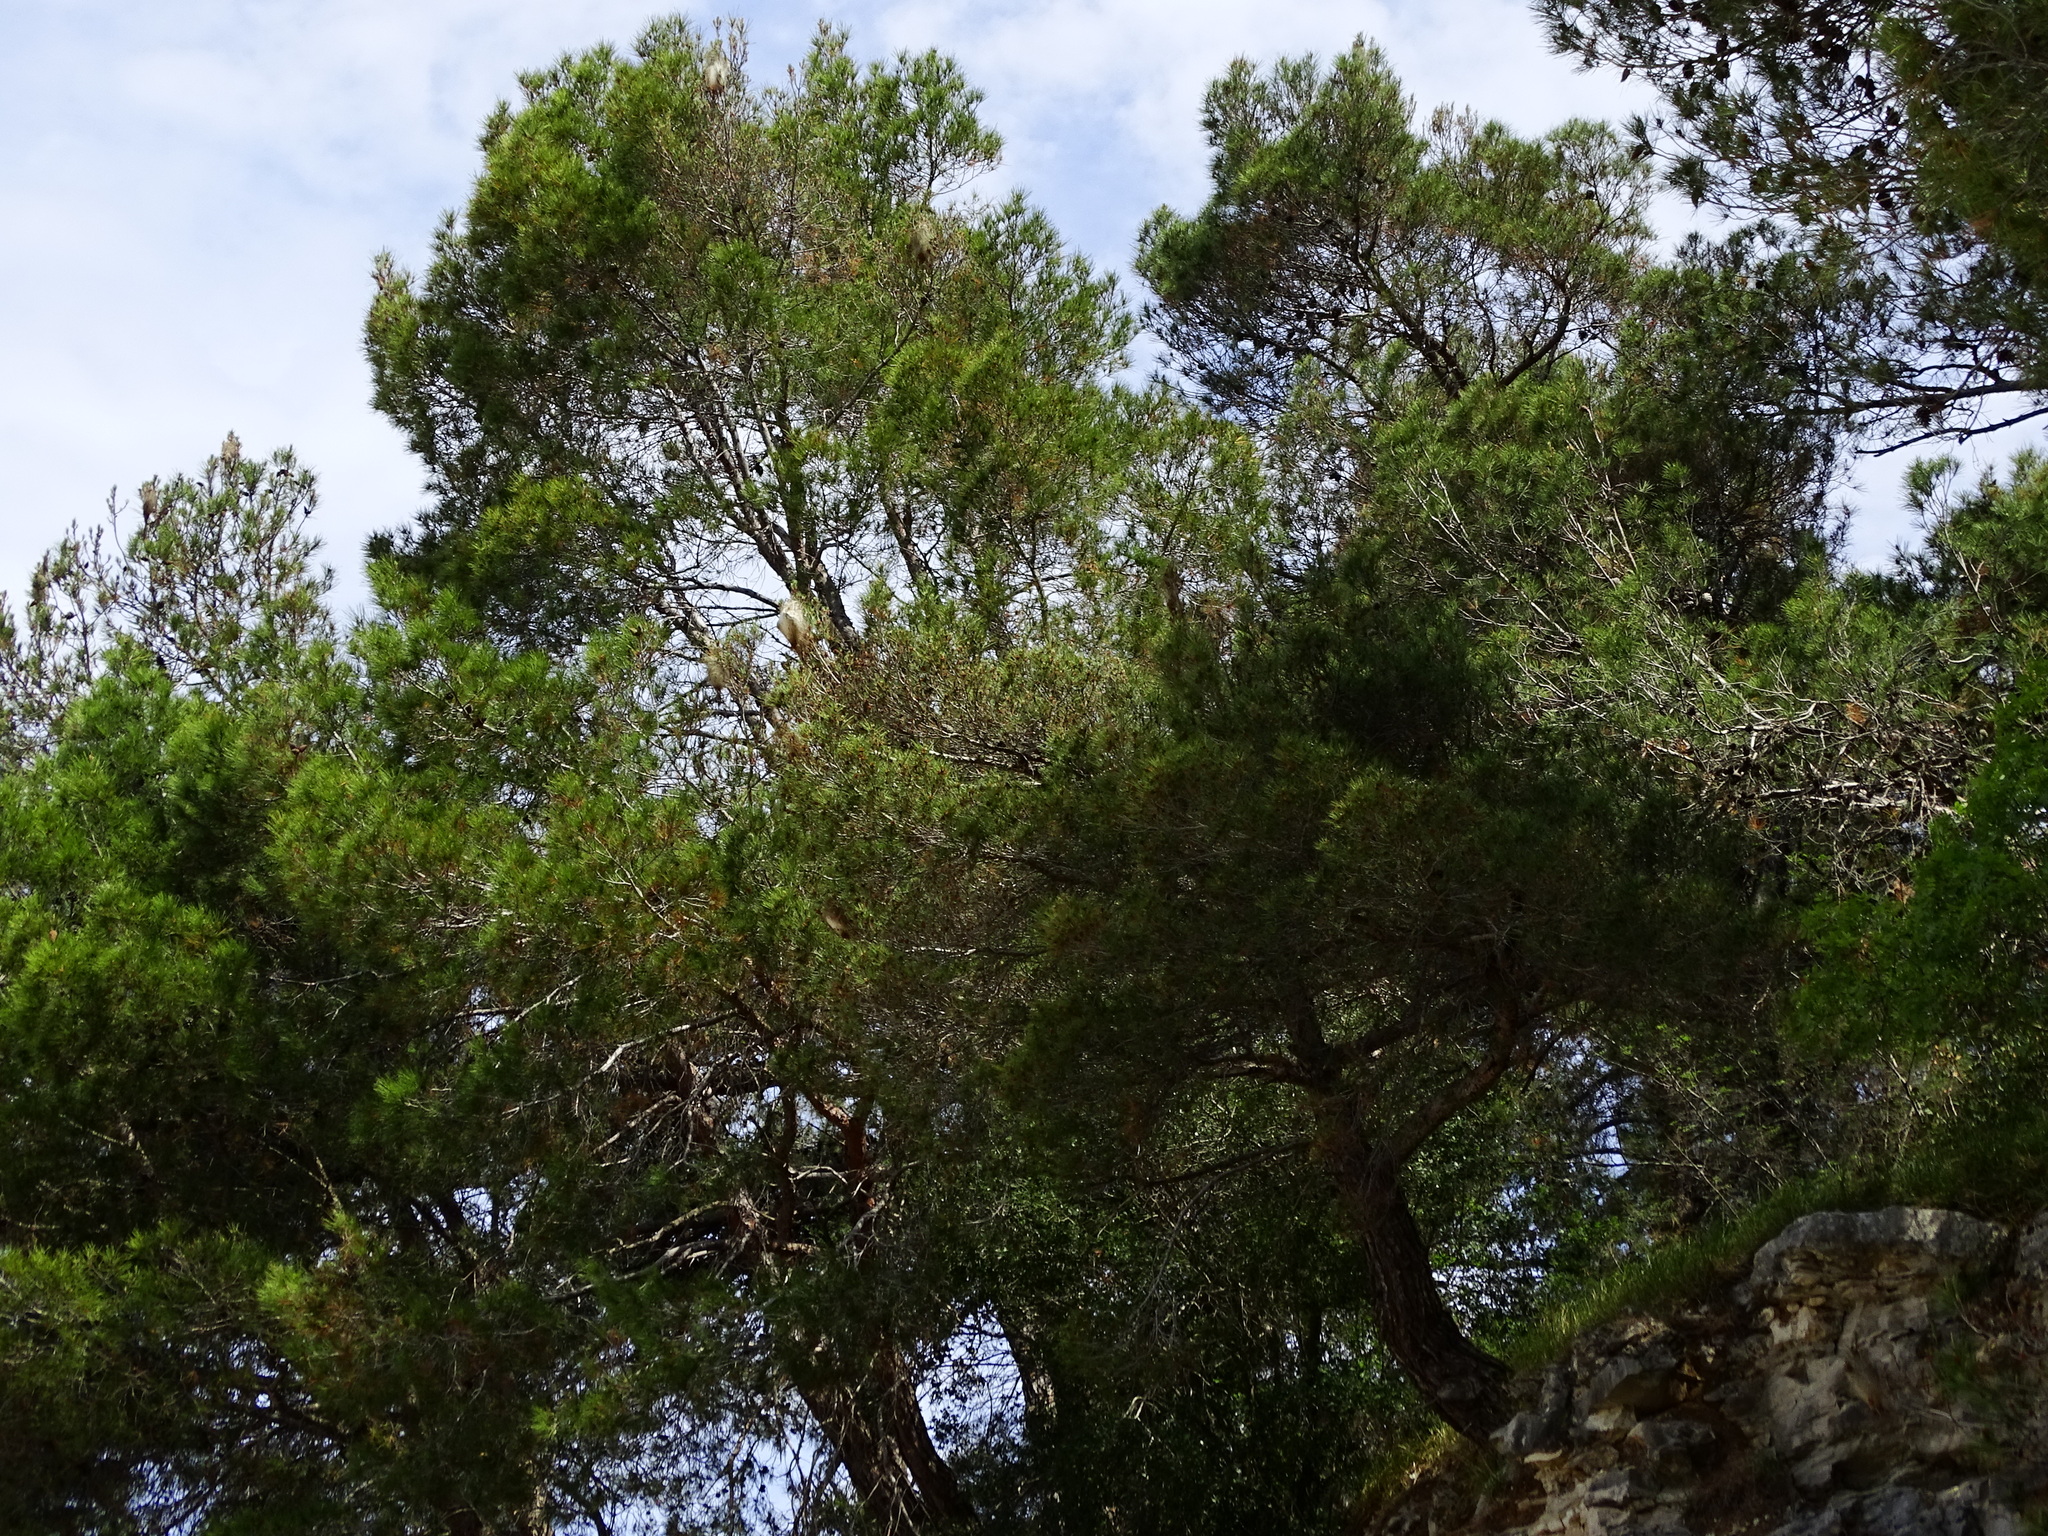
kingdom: Plantae
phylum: Tracheophyta
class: Pinopsida
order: Pinales
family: Pinaceae
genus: Pinus
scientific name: Pinus halepensis
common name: Aleppo pine
